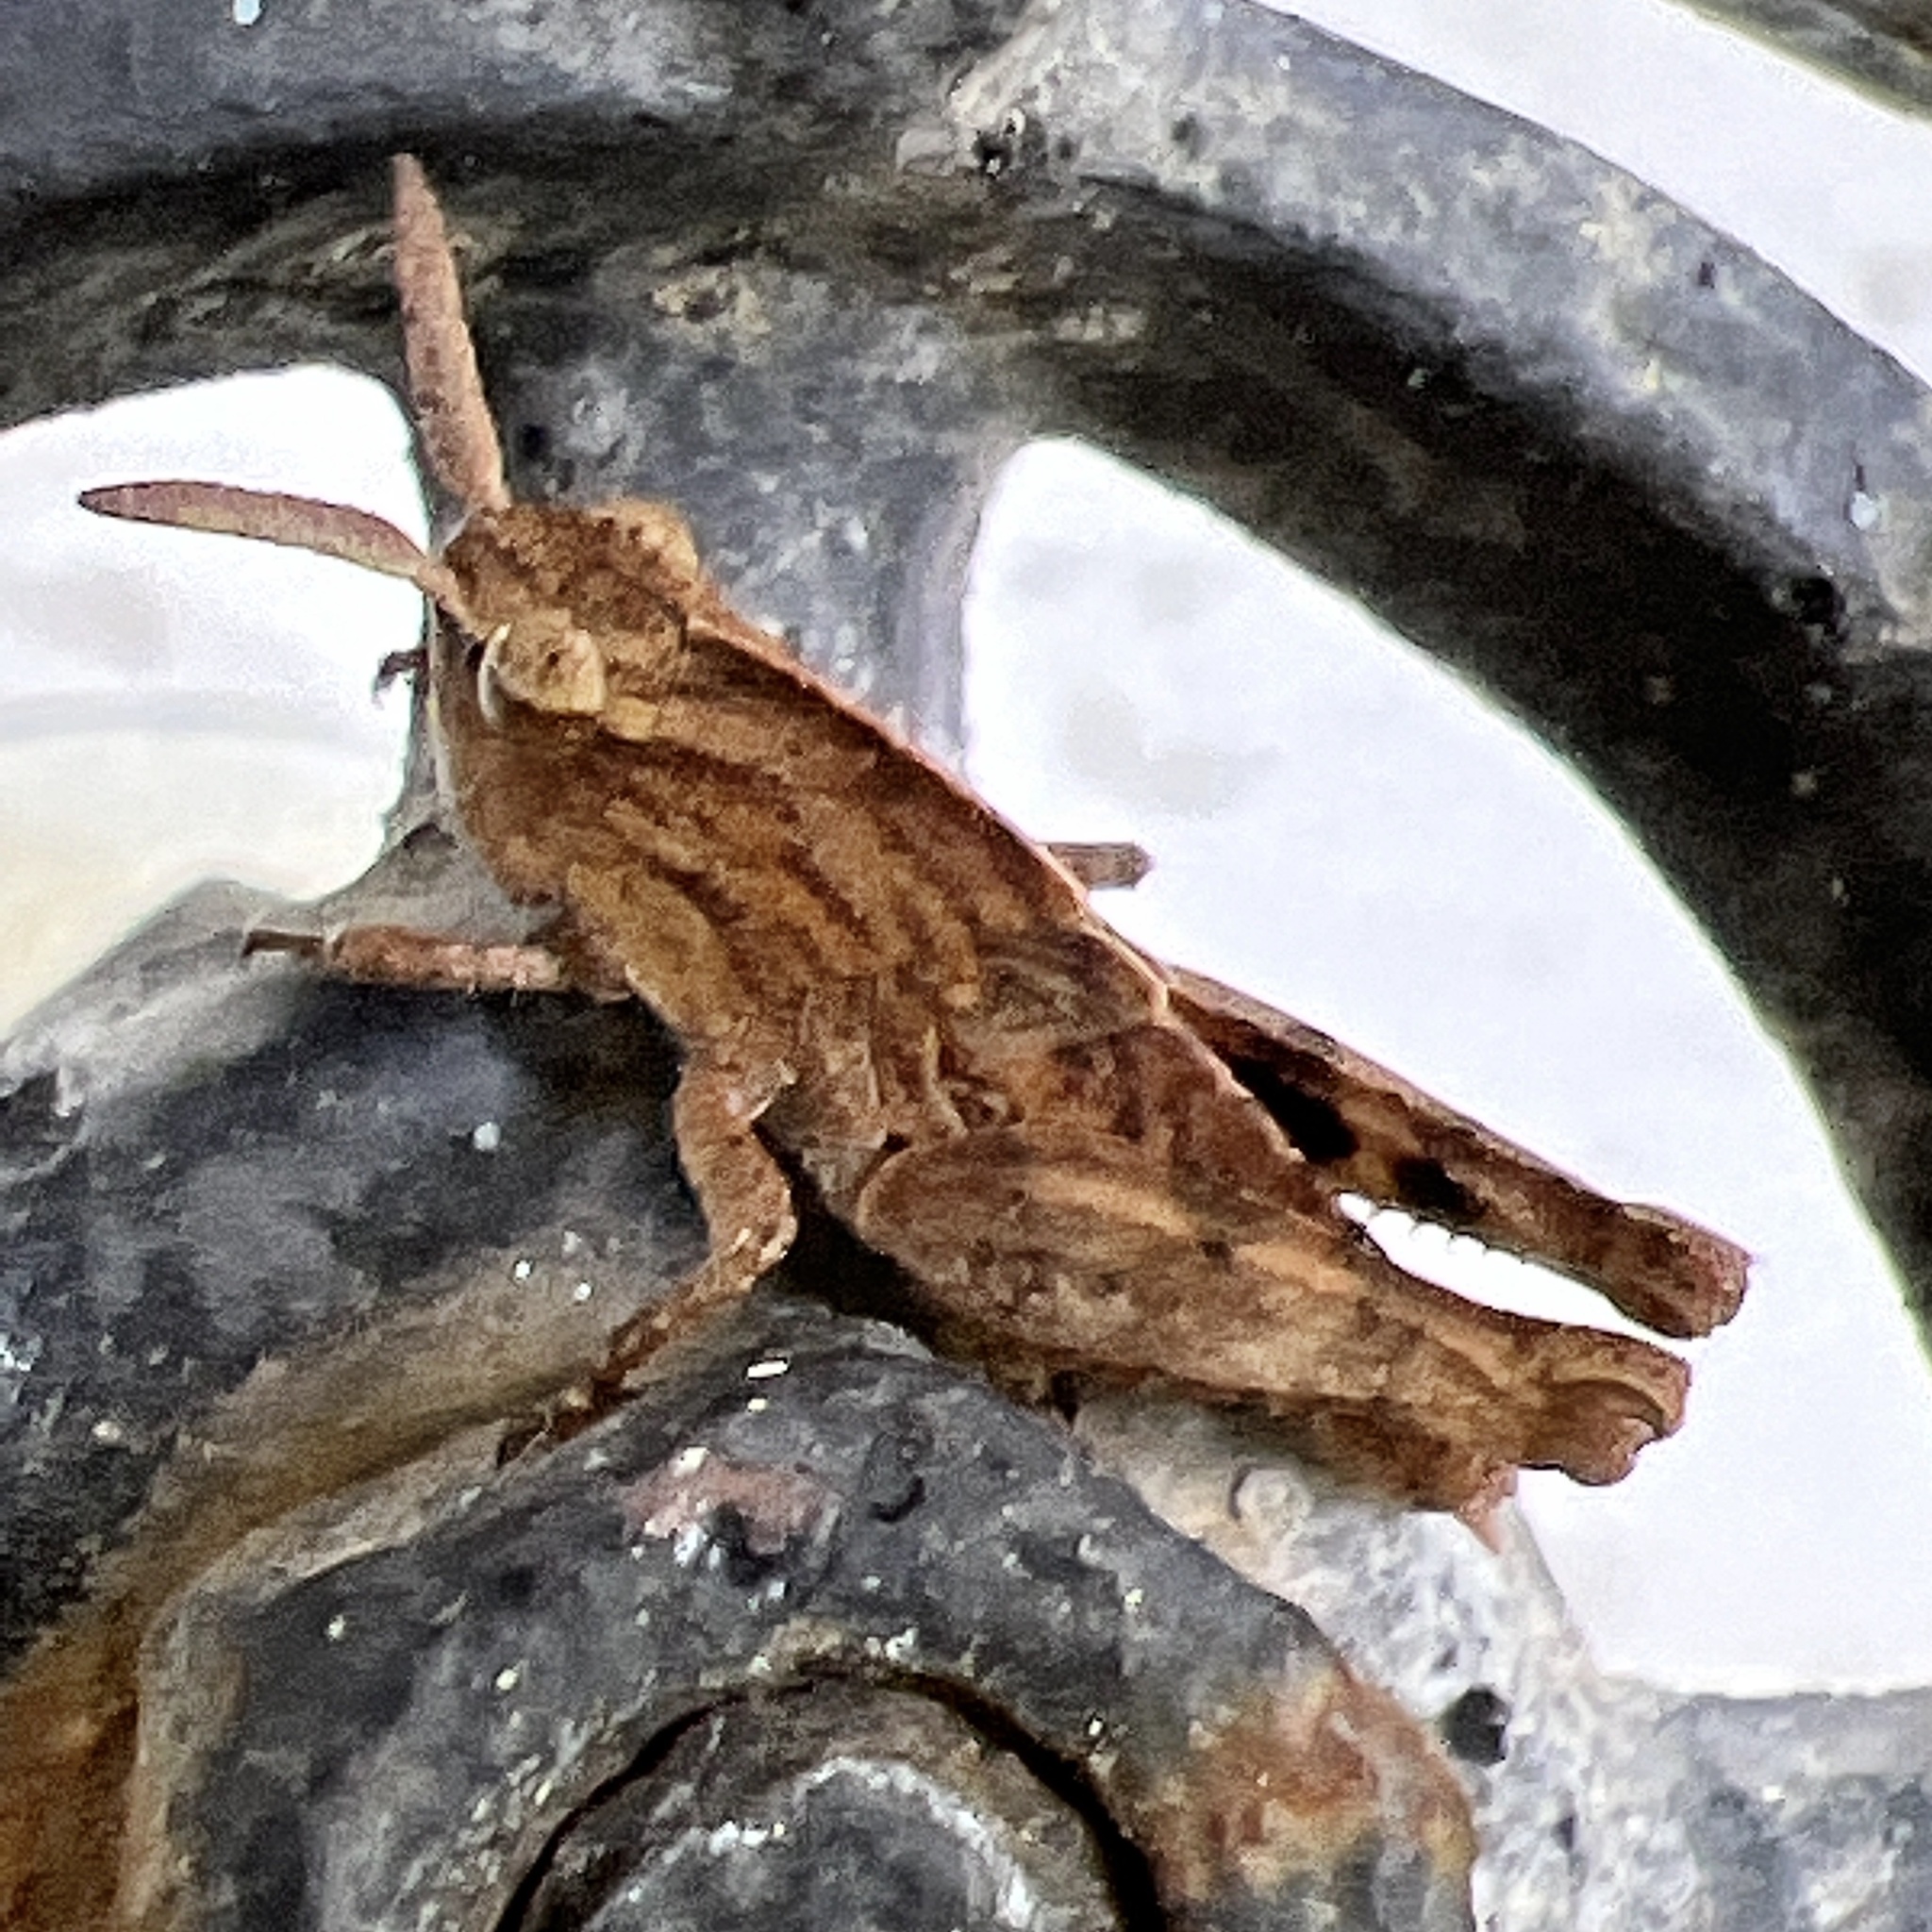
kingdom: Animalia
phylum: Arthropoda
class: Insecta
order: Orthoptera
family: Acrididae
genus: Chortophaga
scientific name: Chortophaga viridifasciata
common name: Green-striped grasshopper
